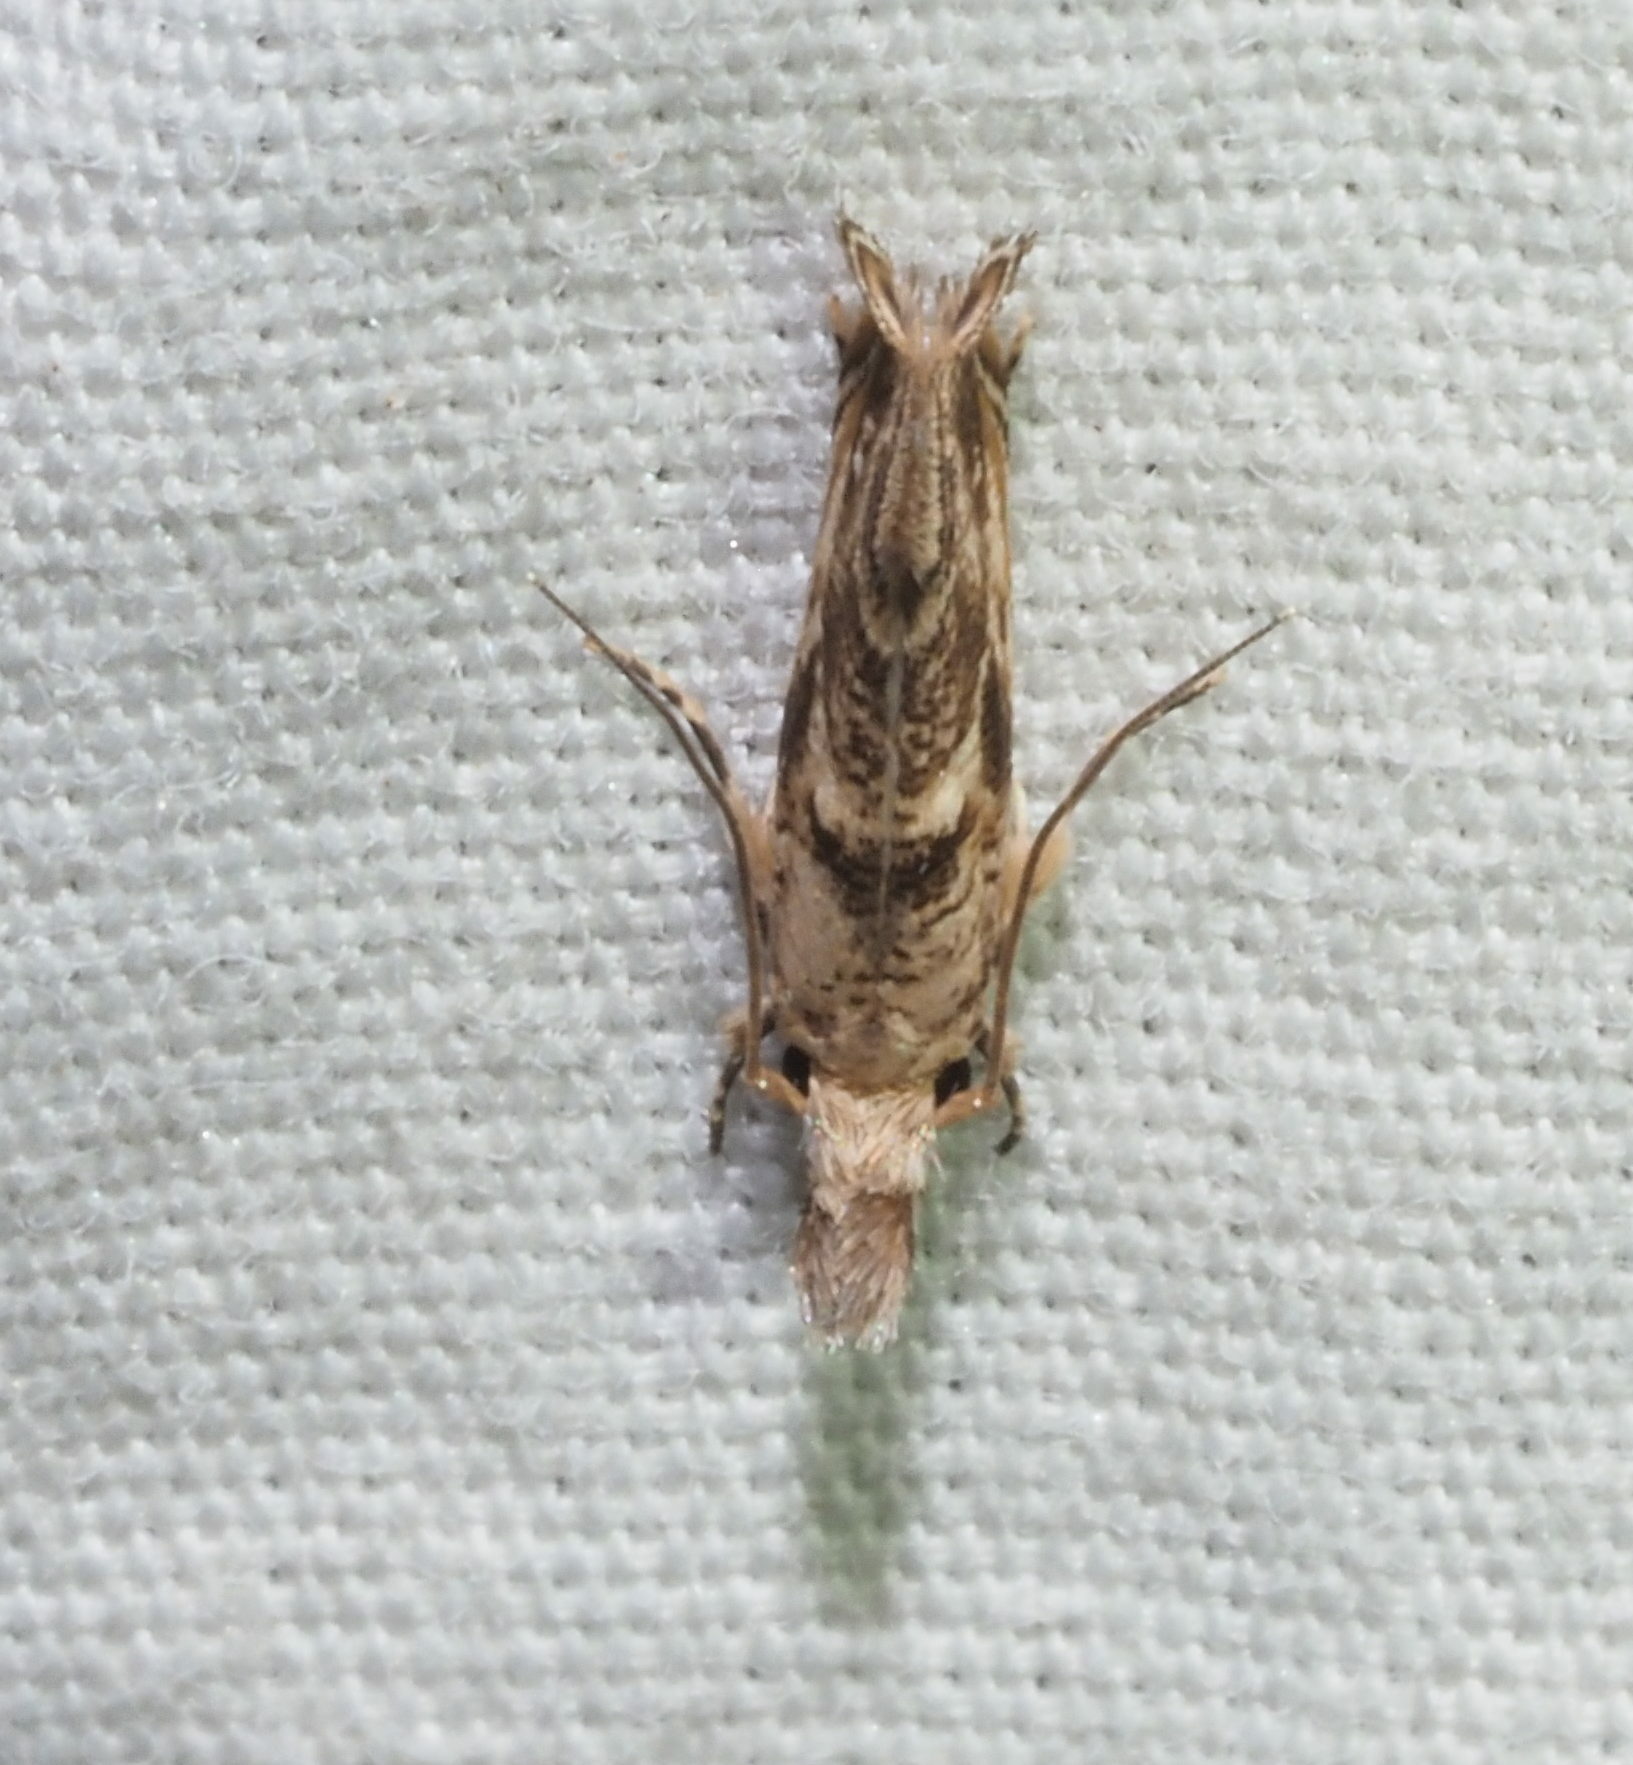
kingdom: Animalia
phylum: Arthropoda
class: Insecta
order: Lepidoptera
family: Tineidae
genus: Erechthias
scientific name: Erechthias pelotricha
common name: Fungus moth
